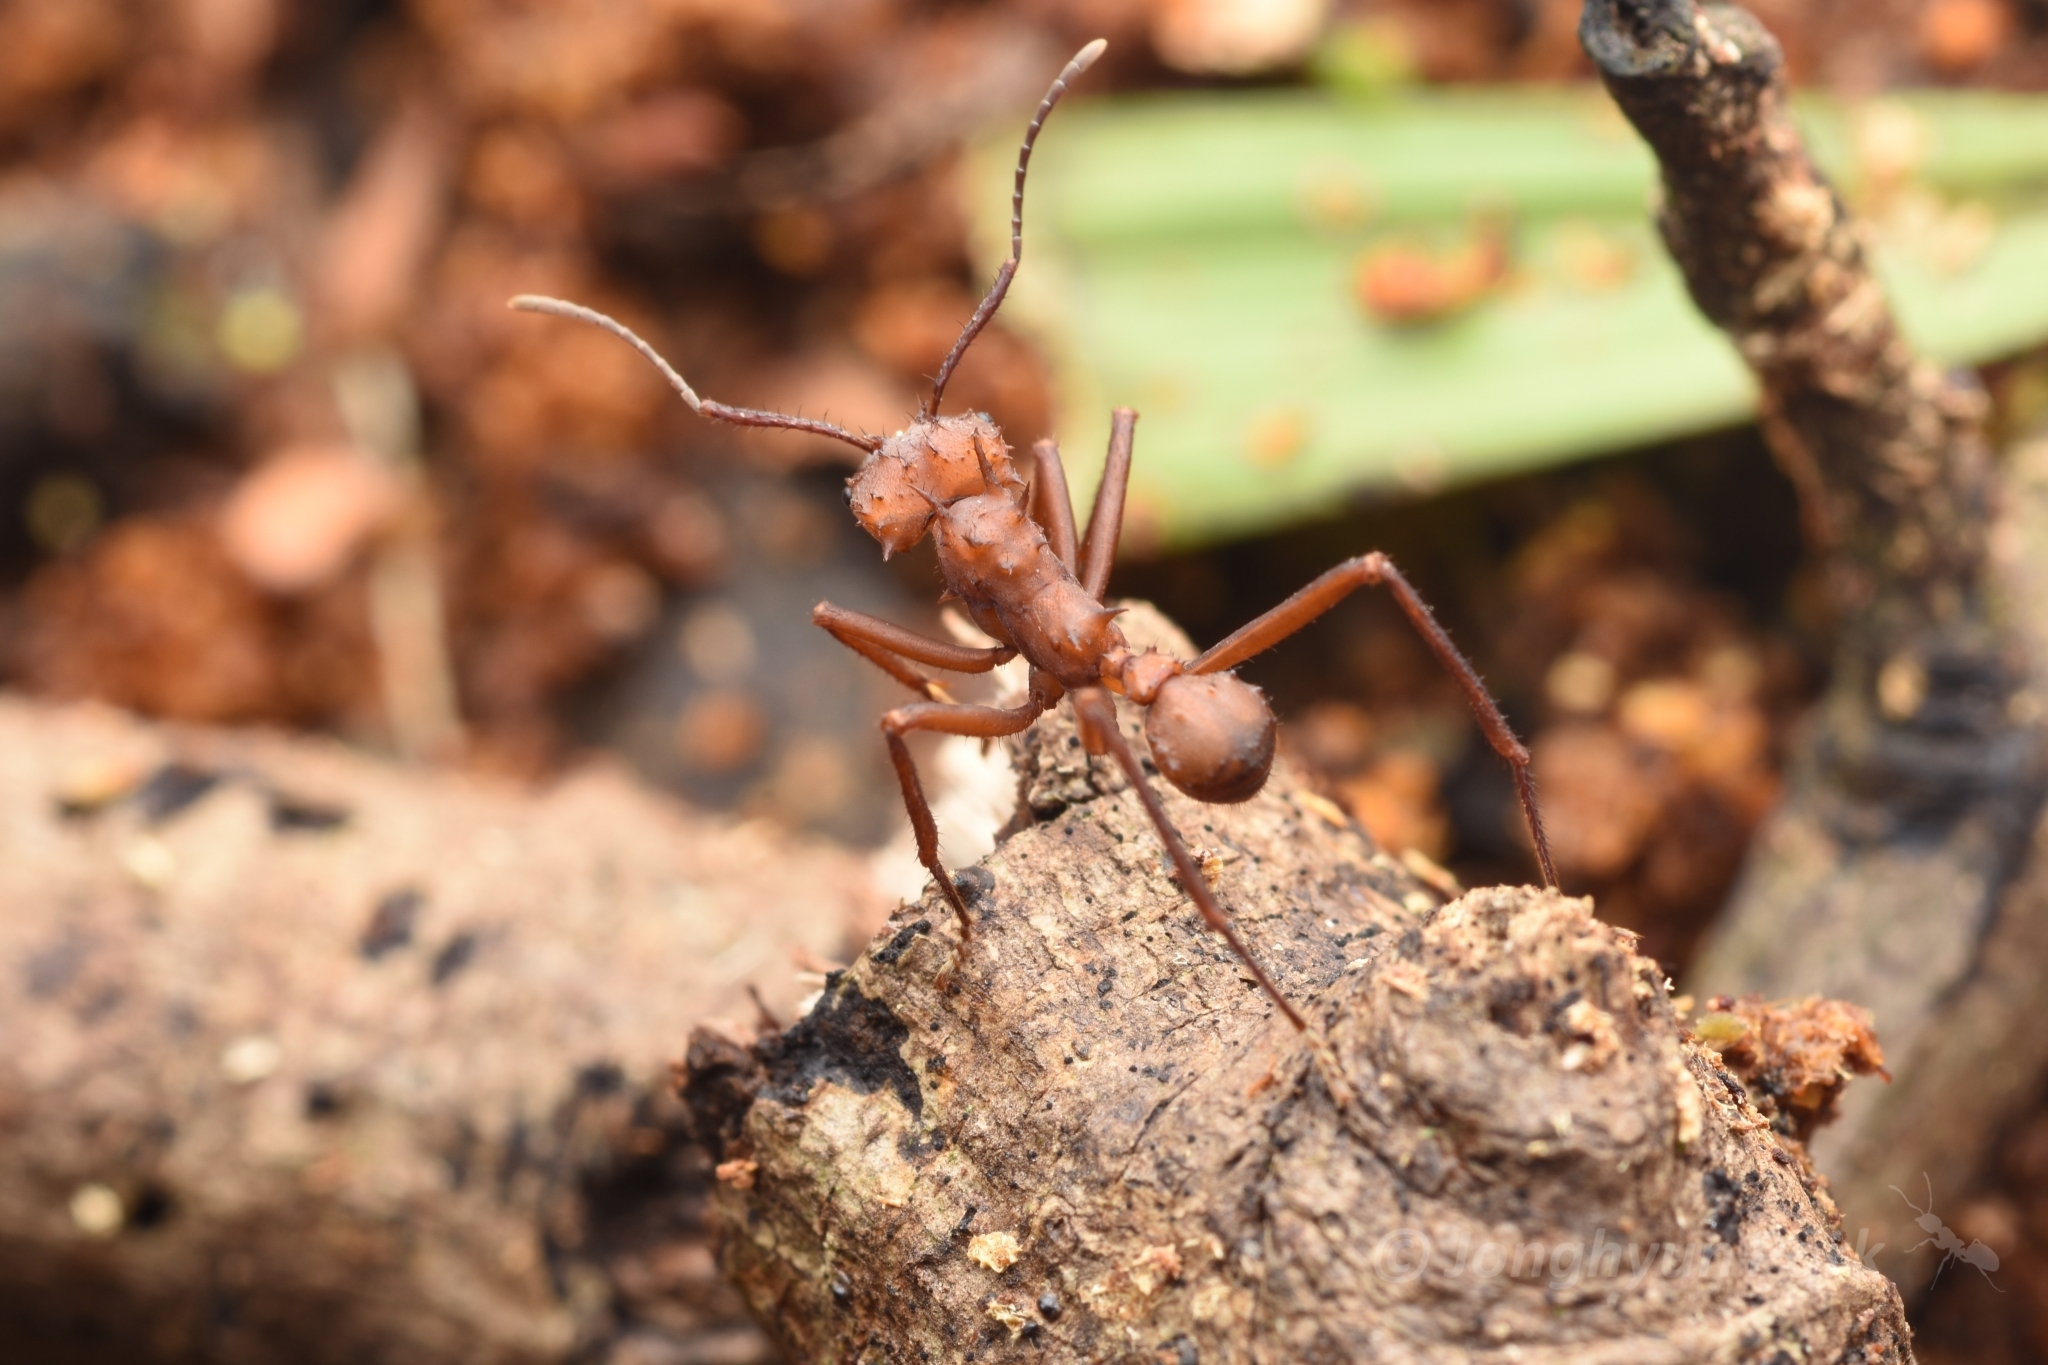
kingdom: Animalia
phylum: Arthropoda
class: Insecta
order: Hymenoptera
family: Formicidae
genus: Acromyrmex
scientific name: Acromyrmex octospinosus
